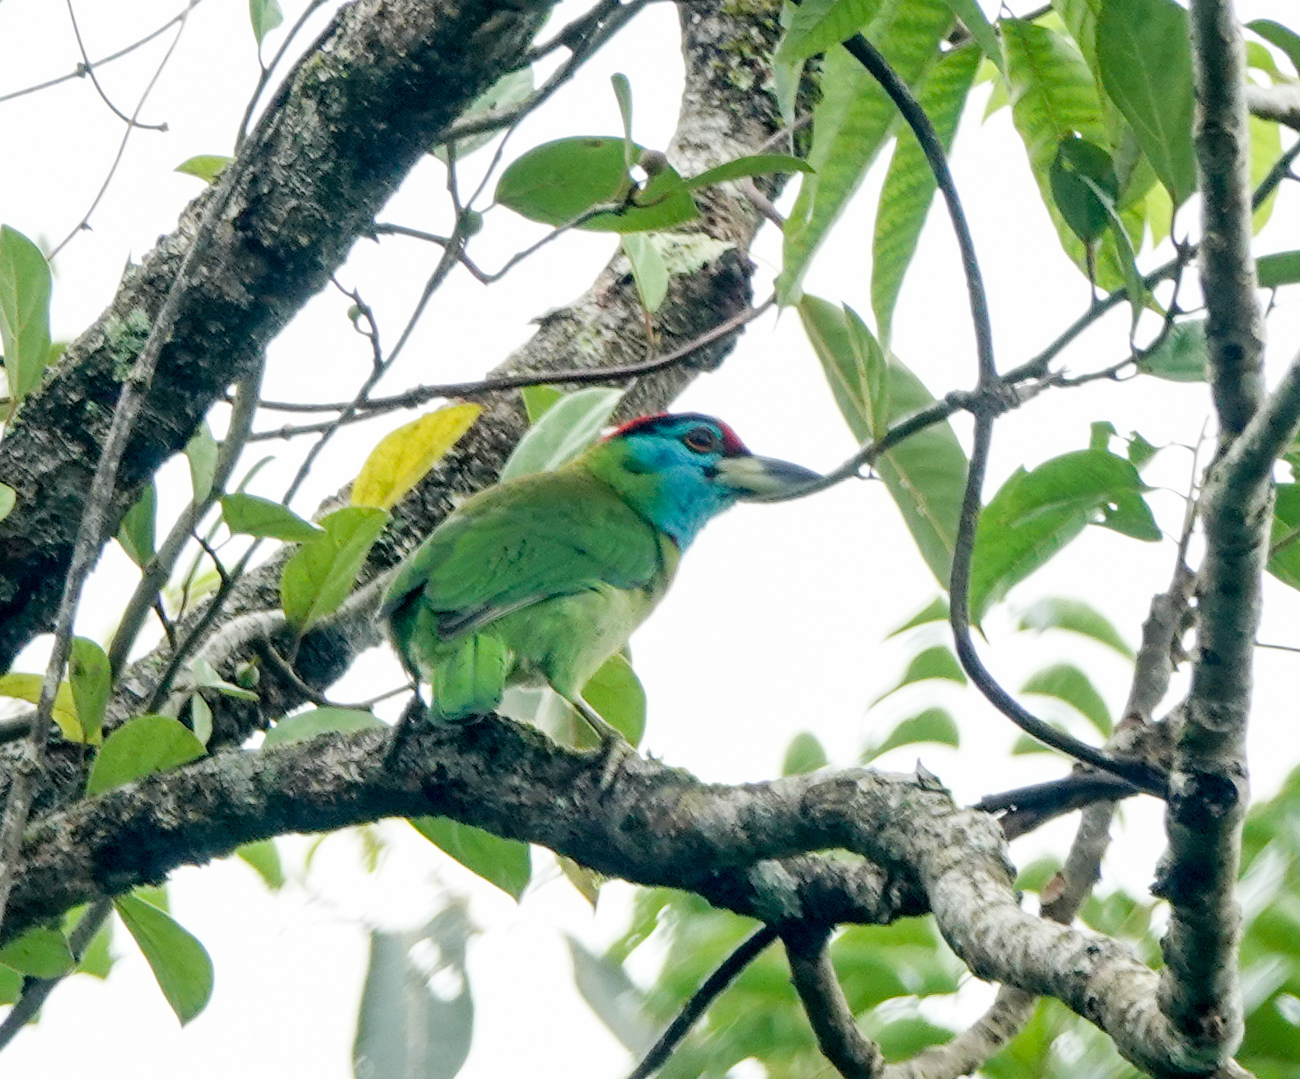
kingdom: Animalia
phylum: Chordata
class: Aves
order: Piciformes
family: Megalaimidae
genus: Psilopogon
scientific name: Psilopogon asiaticus
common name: Blue-throated barbet
